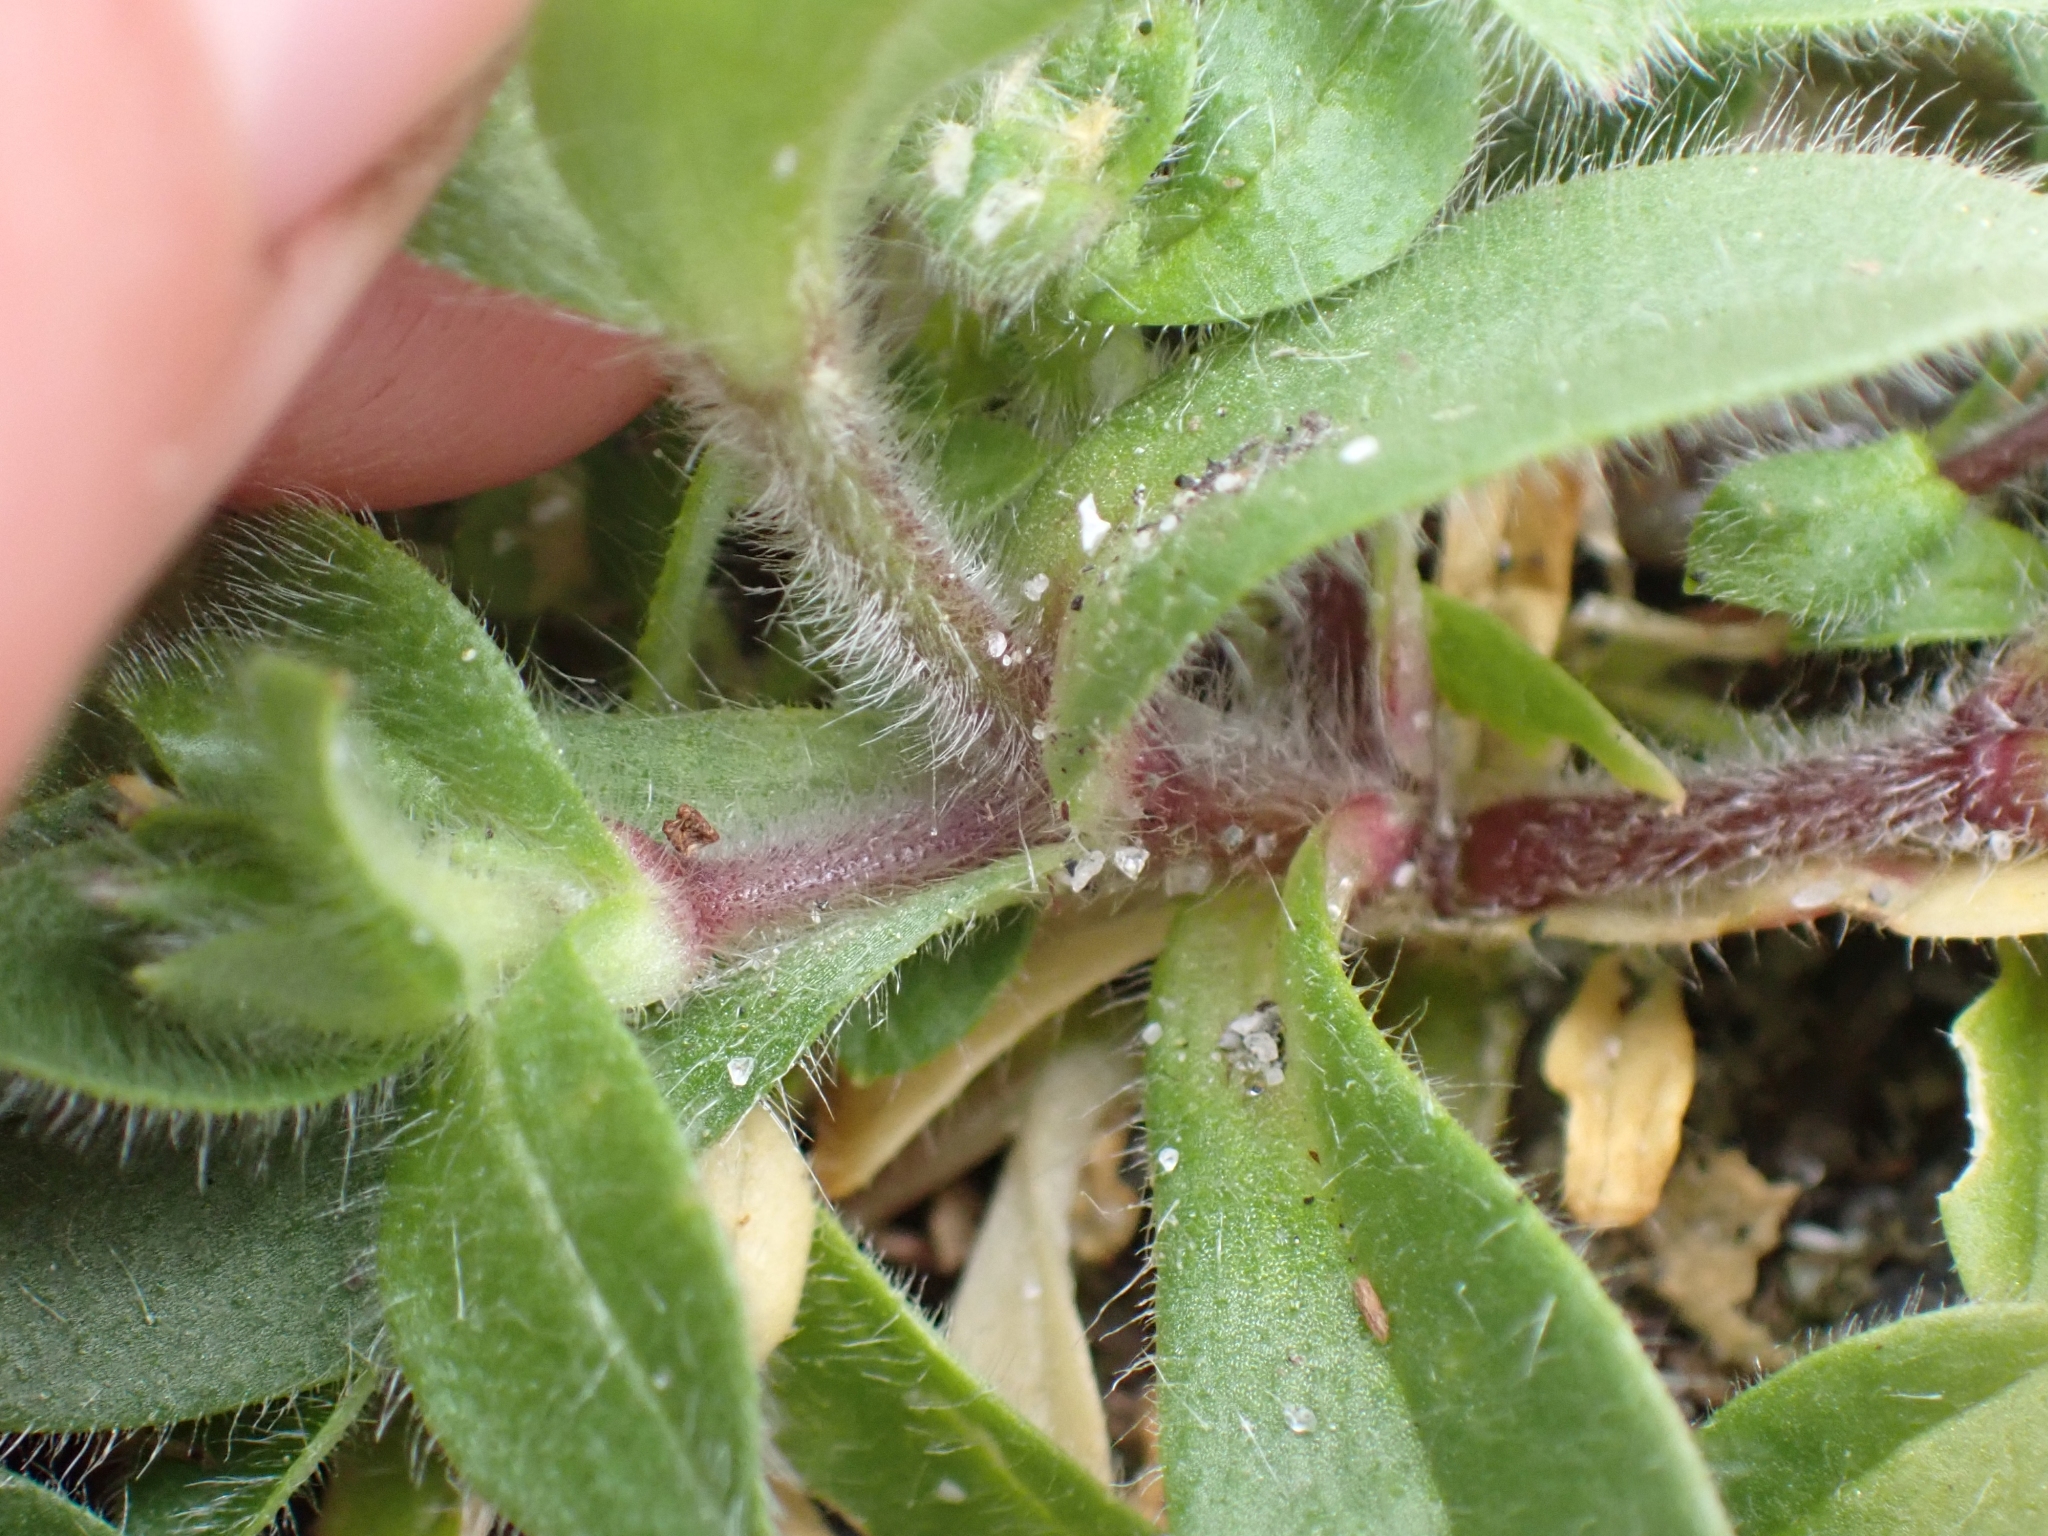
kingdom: Plantae
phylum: Tracheophyta
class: Magnoliopsida
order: Caryophyllales
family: Caryophyllaceae
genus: Cerastium
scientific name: Cerastium glomeratum
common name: Sticky chickweed
